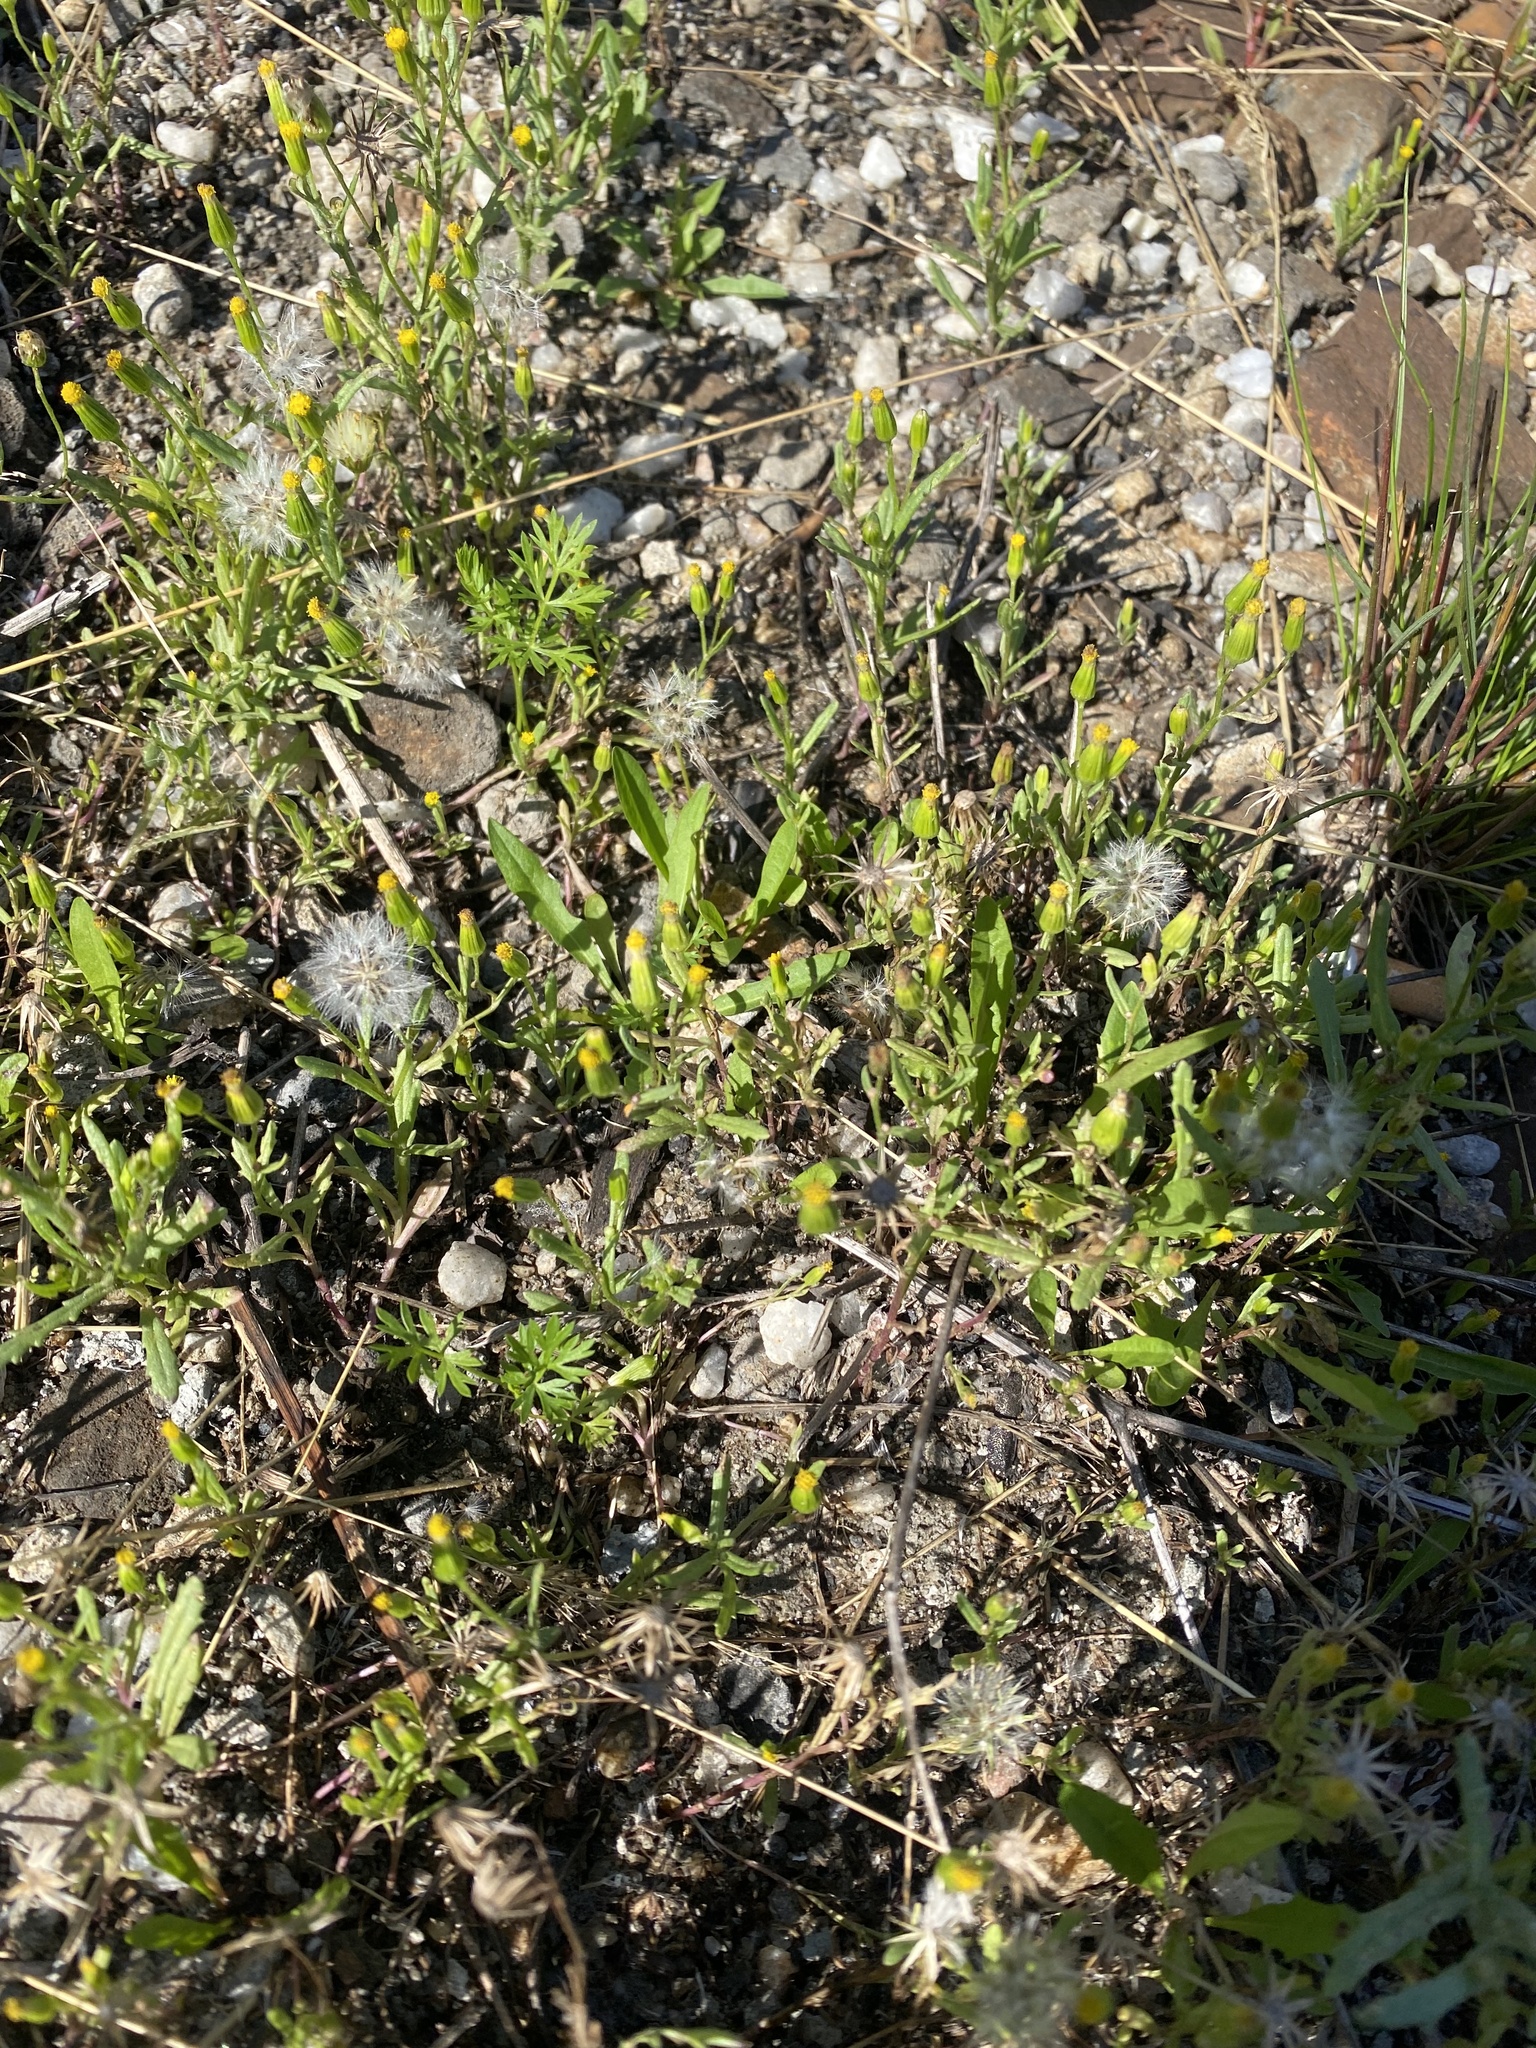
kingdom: Plantae
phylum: Tracheophyta
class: Magnoliopsida
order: Asterales
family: Asteraceae
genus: Senecio
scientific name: Senecio dubitabilis
